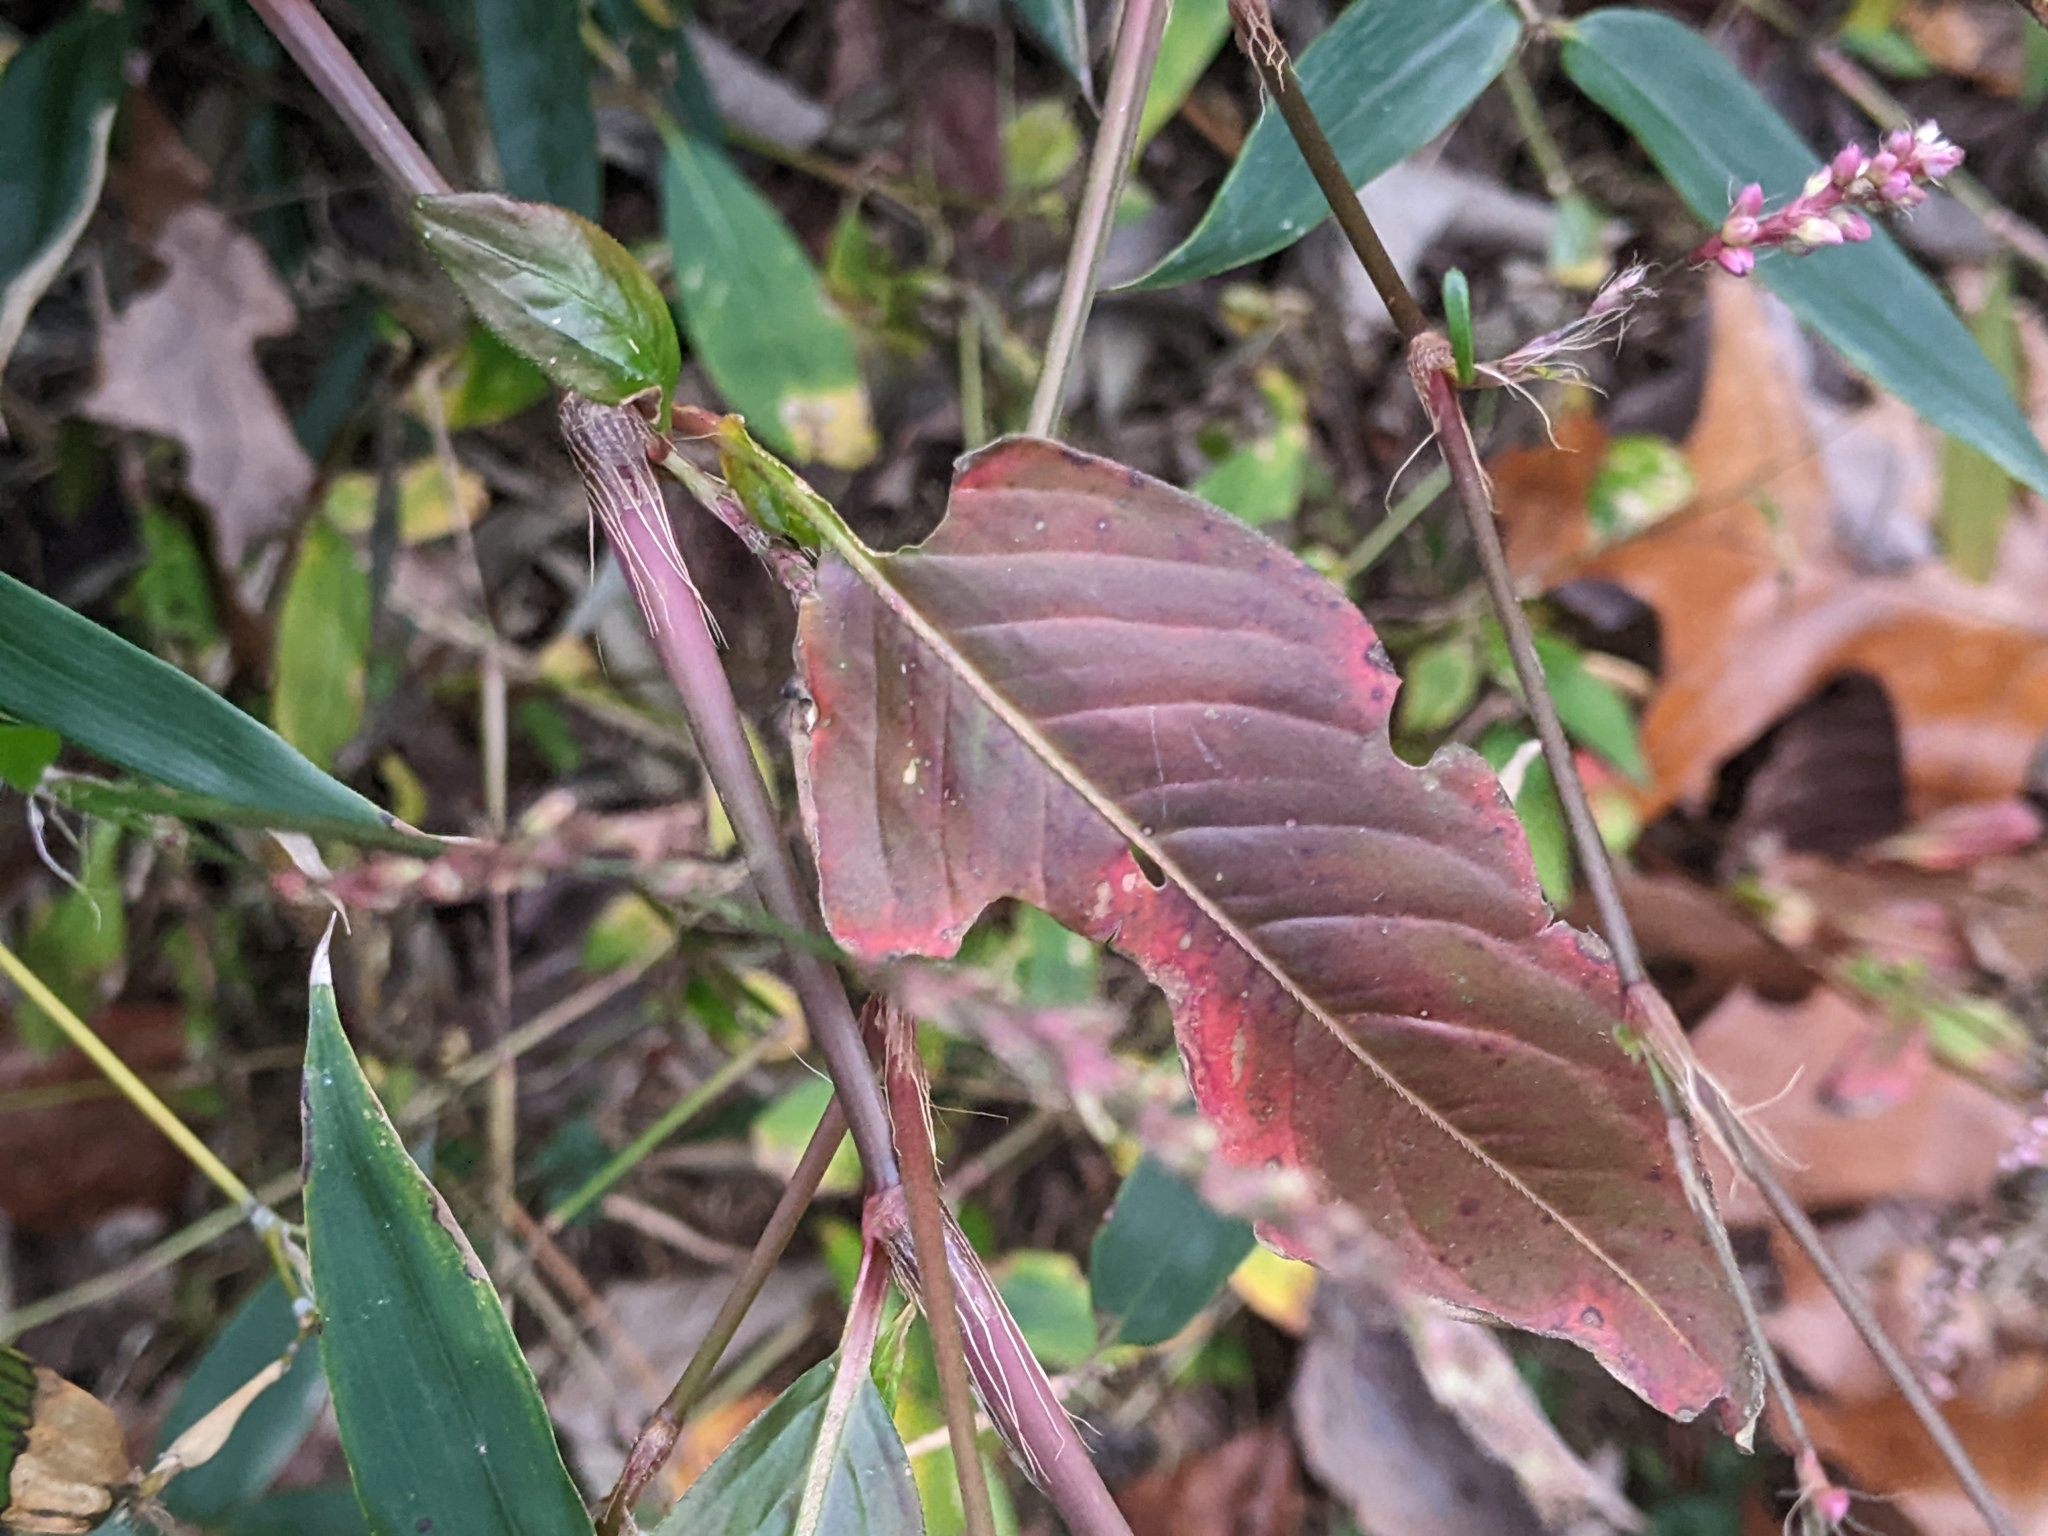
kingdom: Plantae
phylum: Tracheophyta
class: Magnoliopsida
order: Caryophyllales
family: Polygonaceae
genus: Persicaria
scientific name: Persicaria longiseta
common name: Bristly lady's-thumb
